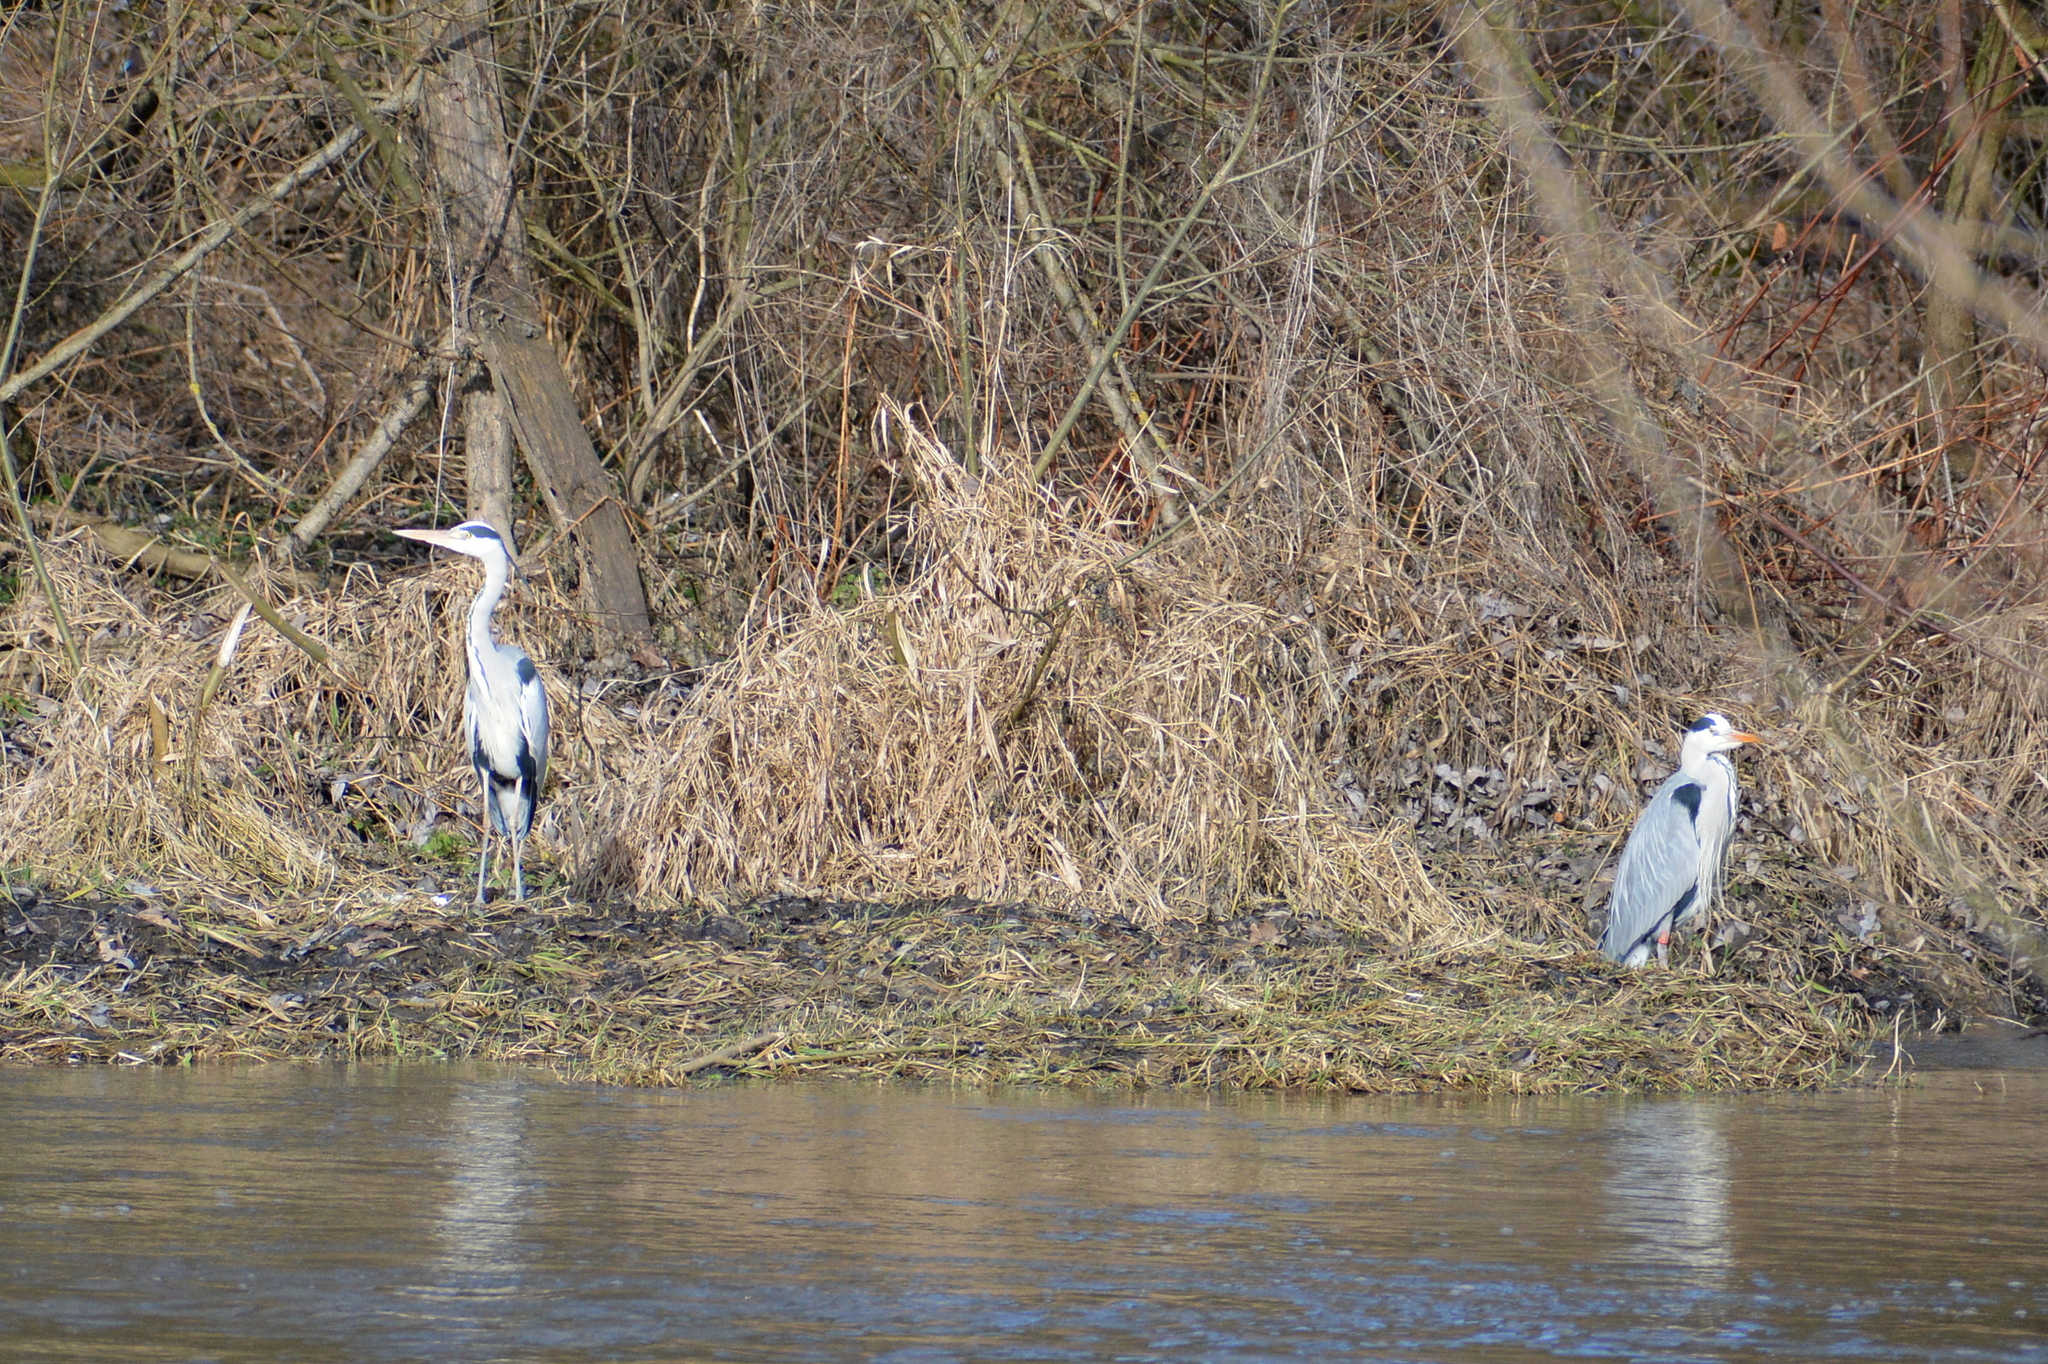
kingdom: Animalia
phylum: Chordata
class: Aves
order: Pelecaniformes
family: Ardeidae
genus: Ardea
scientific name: Ardea cinerea
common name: Grey heron
